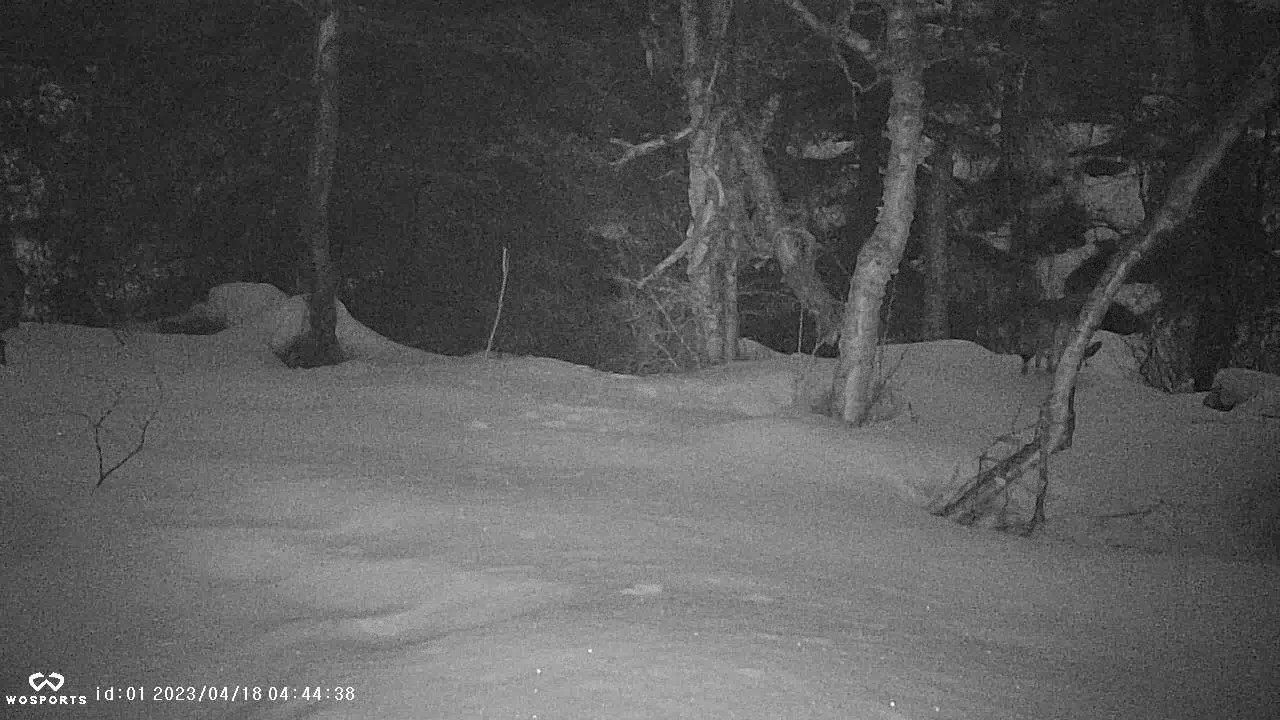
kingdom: Animalia
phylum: Chordata
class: Mammalia
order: Carnivora
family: Canidae
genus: Canis
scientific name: Canis latrans
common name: Coyote
